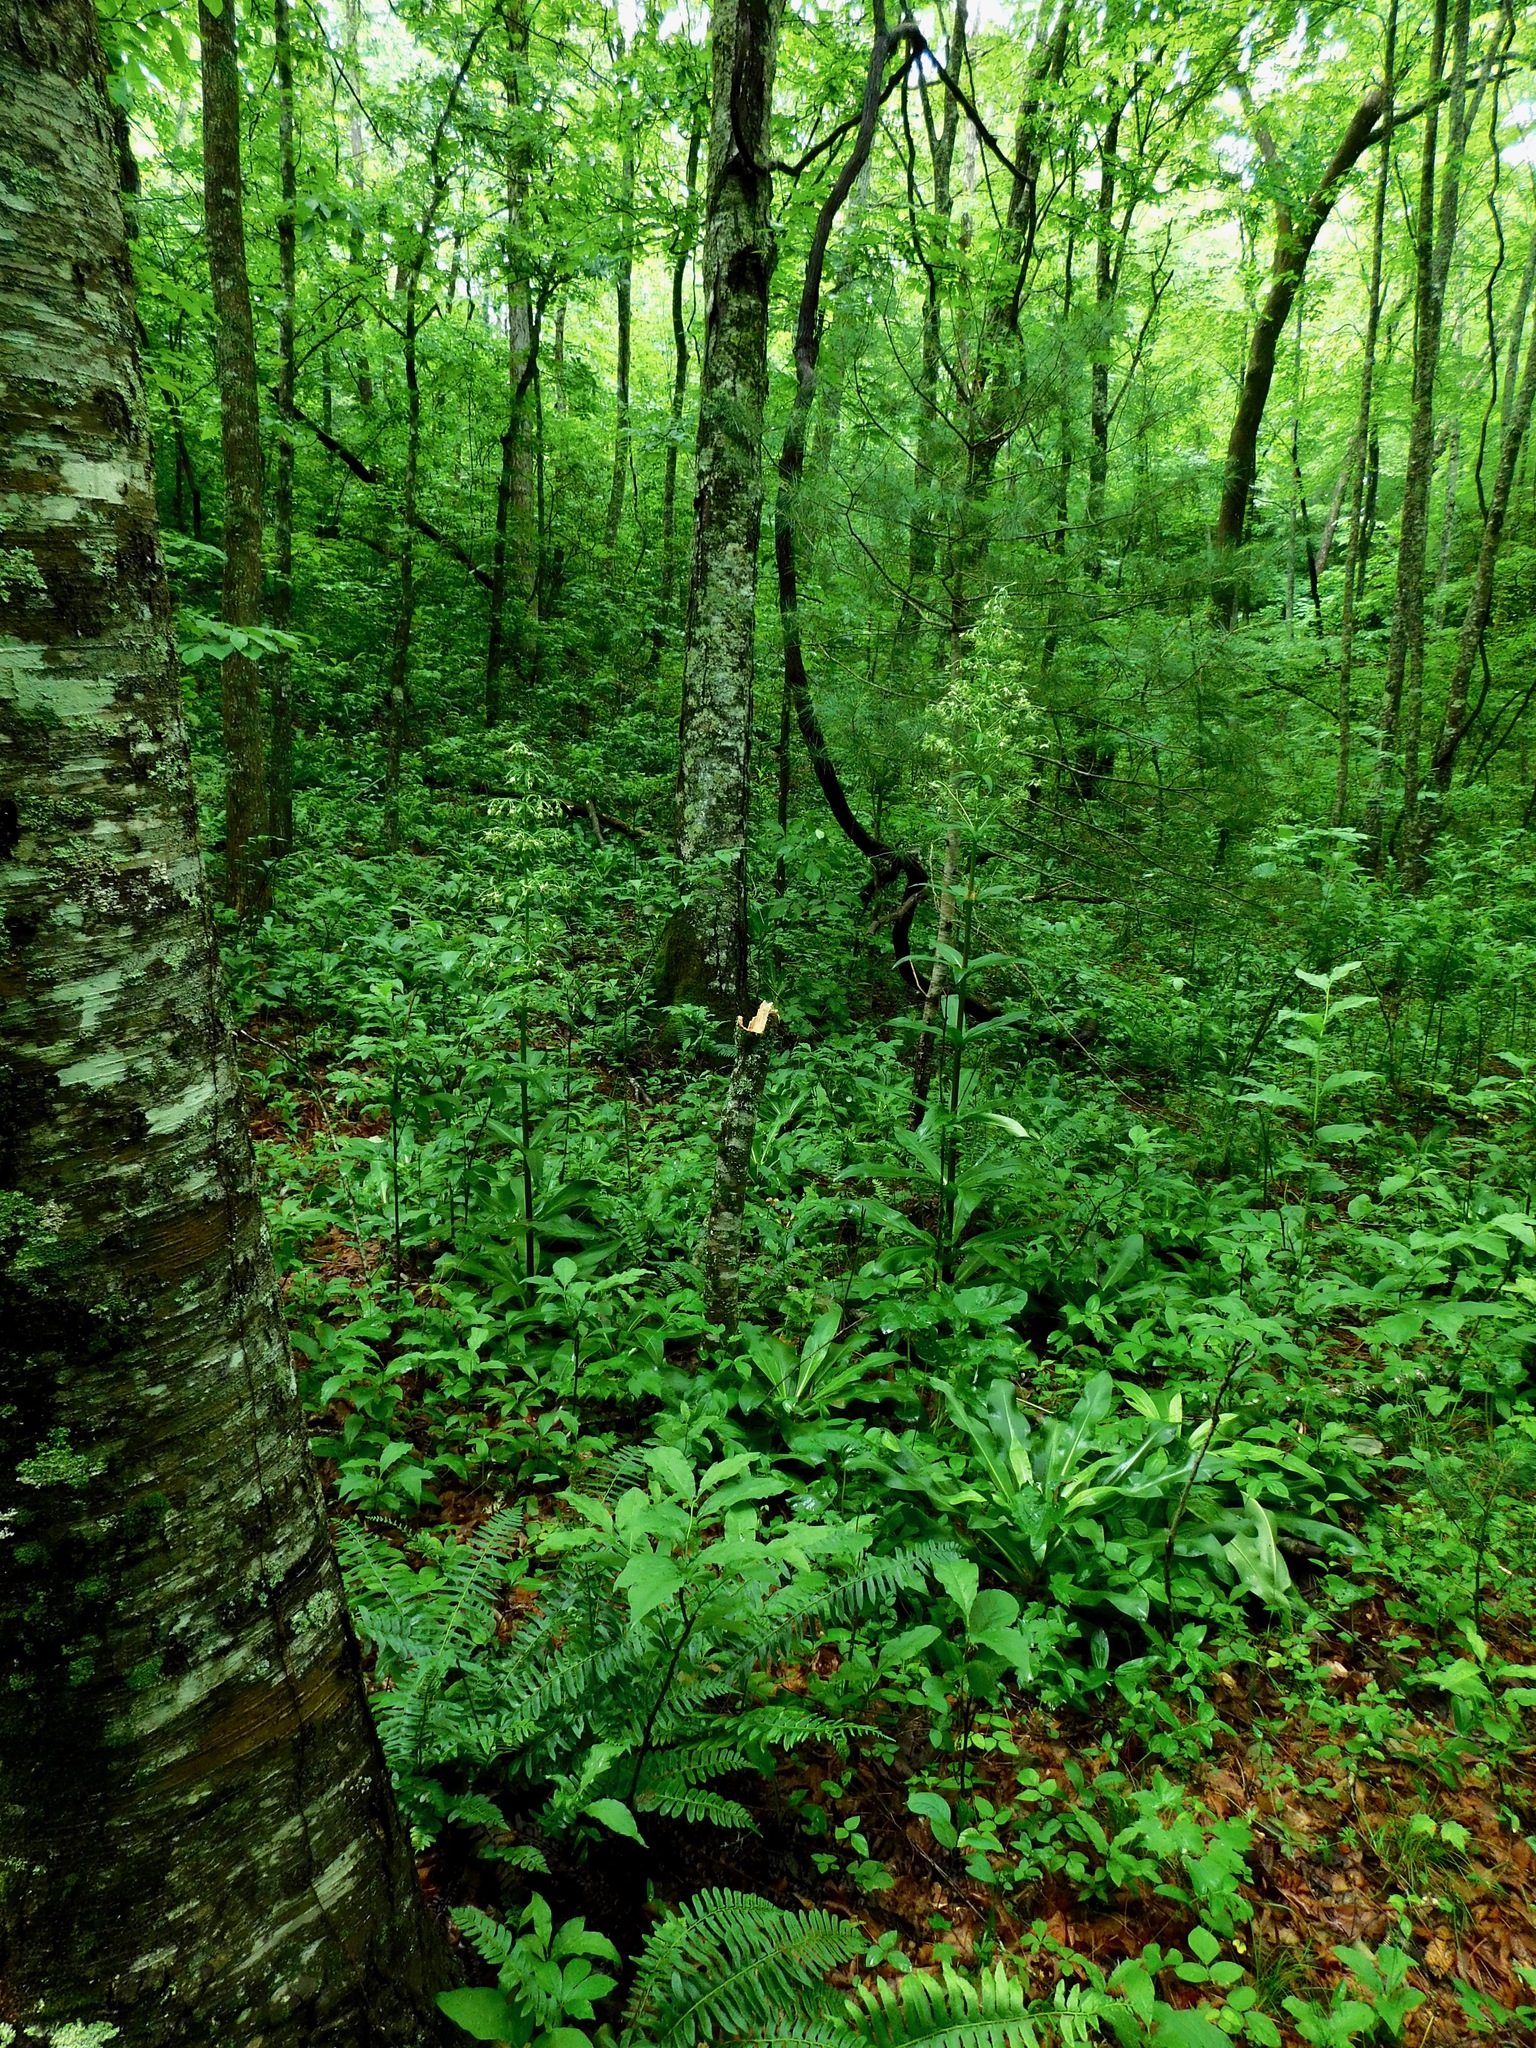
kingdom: Plantae
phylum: Tracheophyta
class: Magnoliopsida
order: Gentianales
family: Gentianaceae
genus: Frasera
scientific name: Frasera caroliniensis
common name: American columbo
